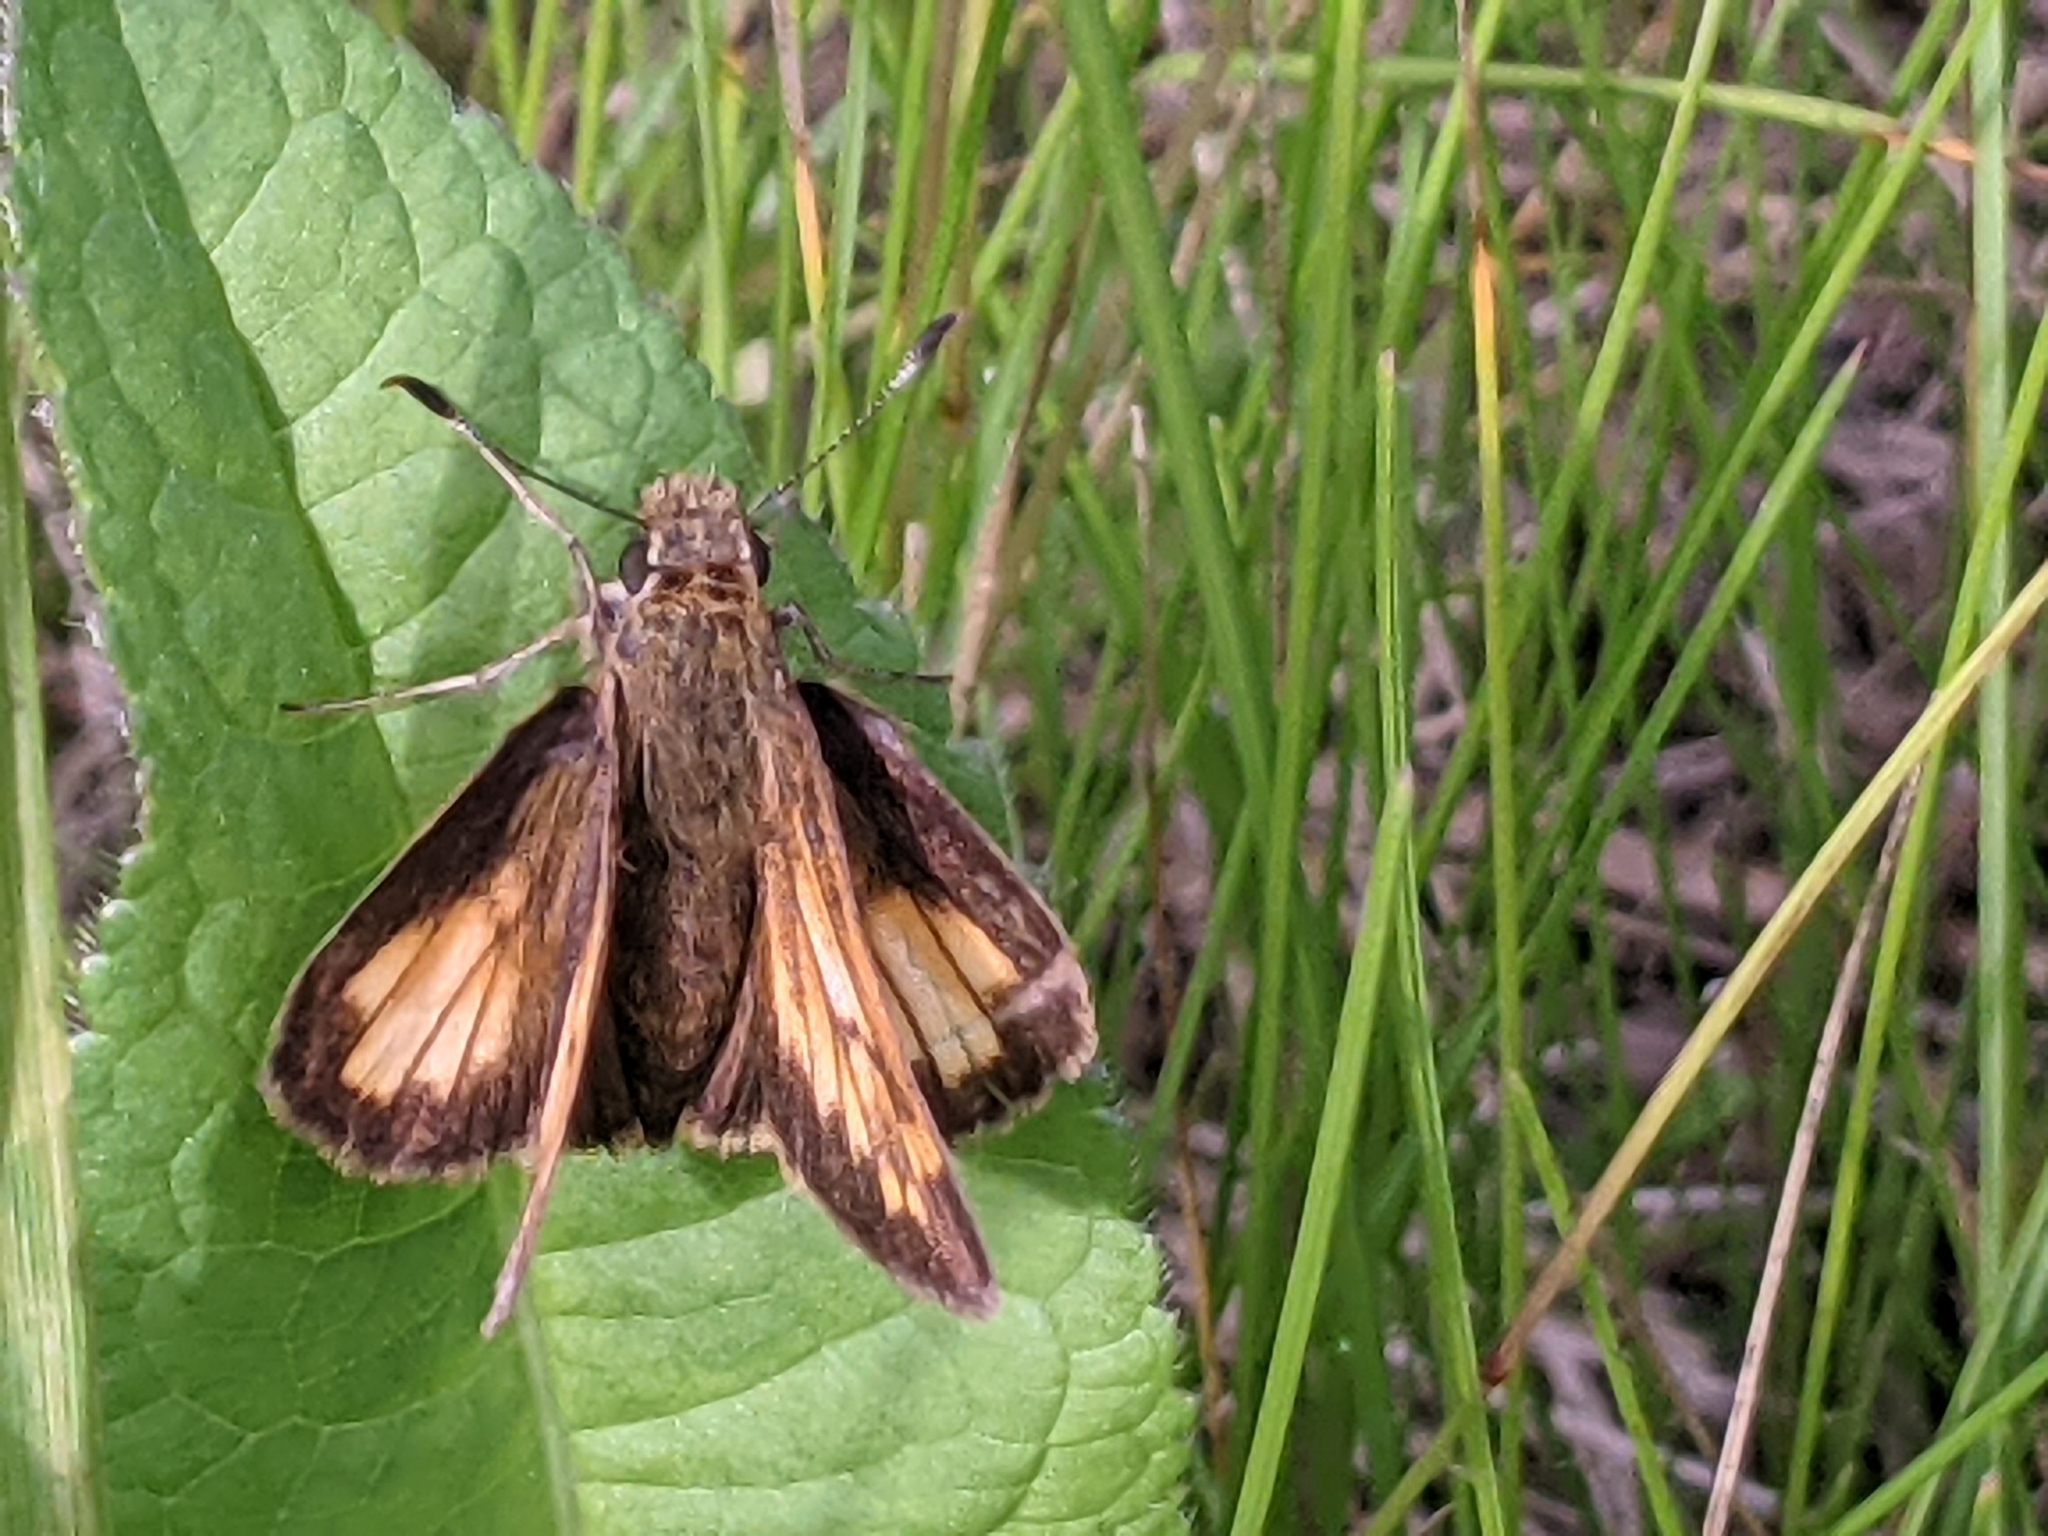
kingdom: Animalia
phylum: Arthropoda
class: Insecta
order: Lepidoptera
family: Hesperiidae
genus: Lon
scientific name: Lon hobomok
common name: Hobomok skipper
